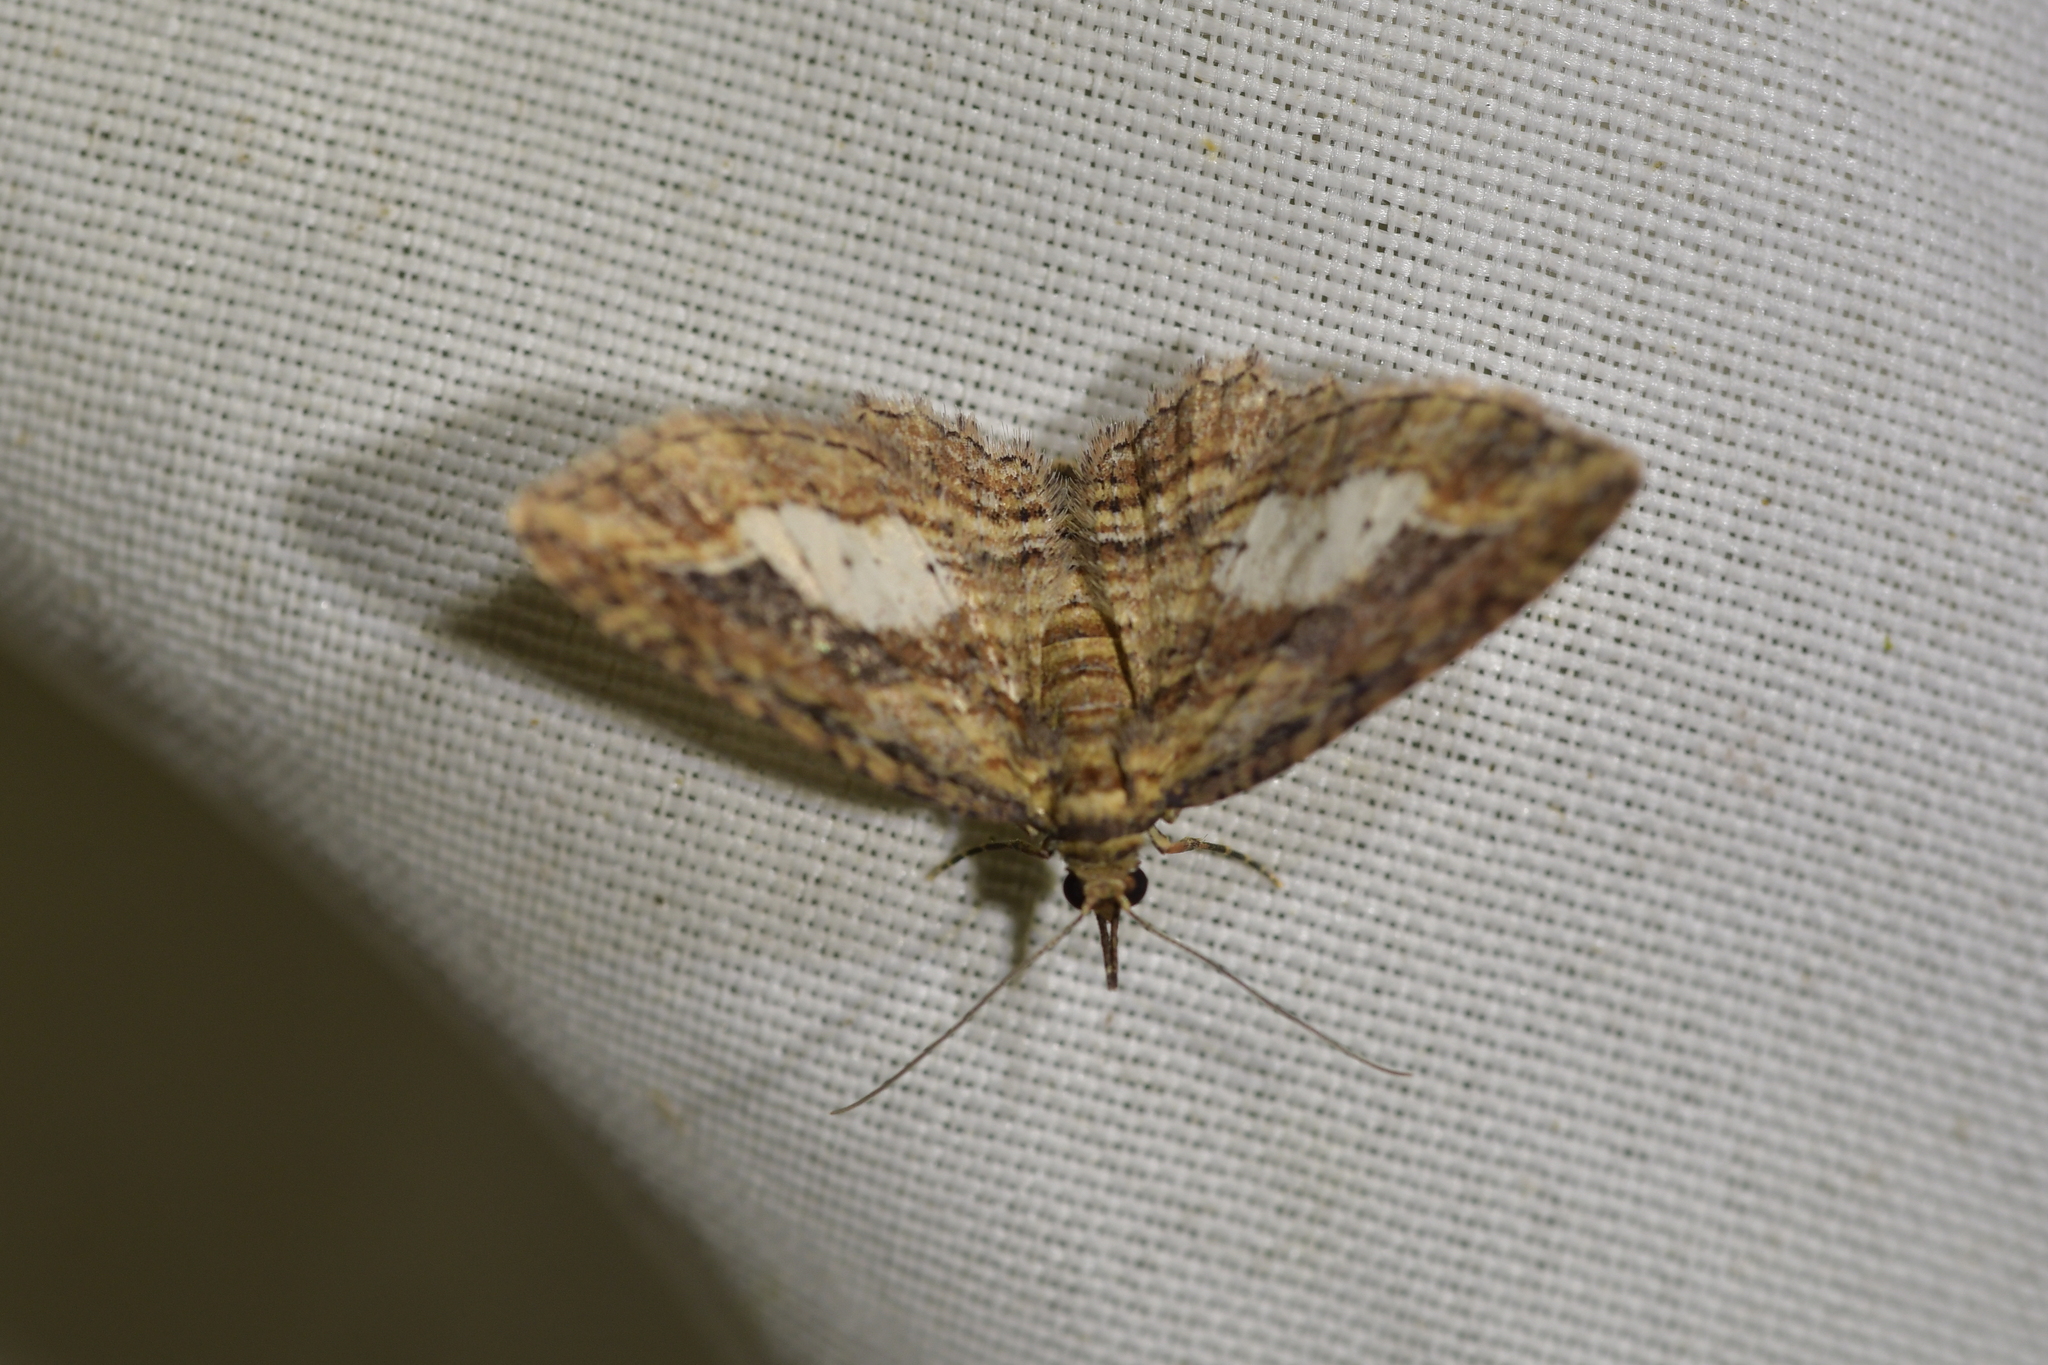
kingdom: Animalia
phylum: Arthropoda
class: Insecta
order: Lepidoptera
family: Geometridae
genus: Chloroclystis
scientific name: Chloroclystis filata
